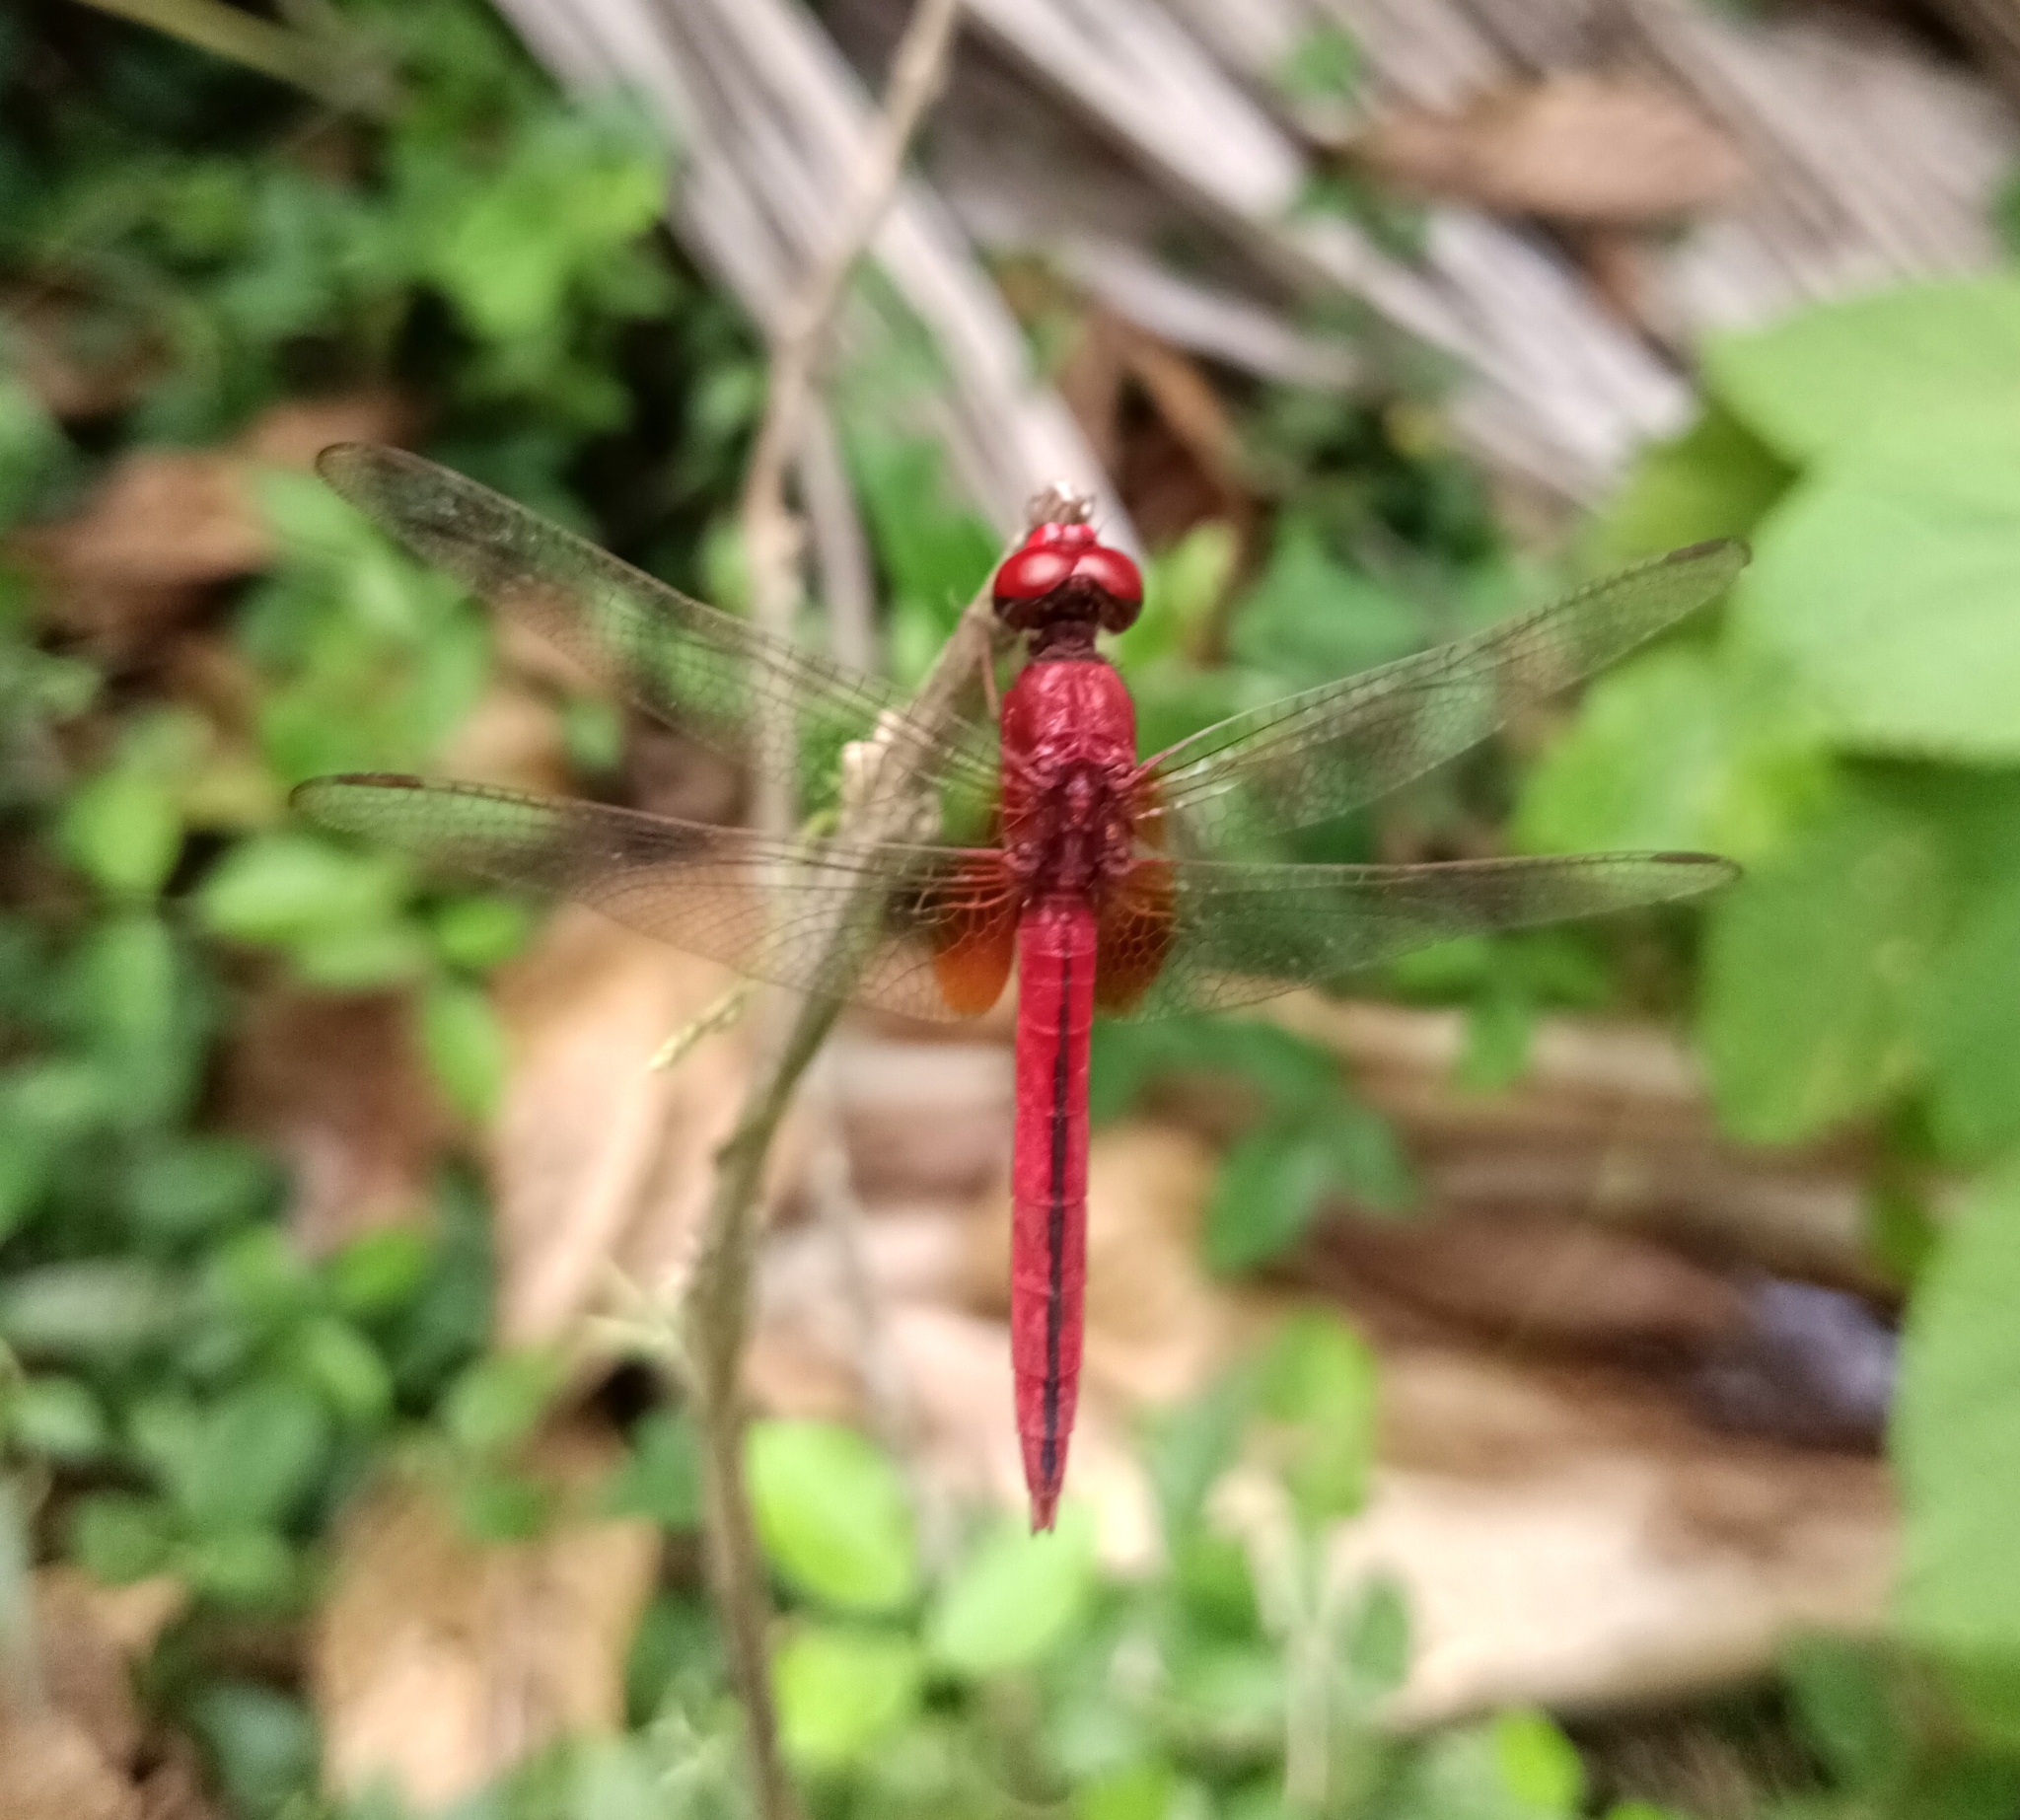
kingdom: Animalia
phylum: Arthropoda
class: Insecta
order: Odonata
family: Libellulidae
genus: Crocothemis
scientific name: Crocothemis servilia
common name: Scarlet skimmer
